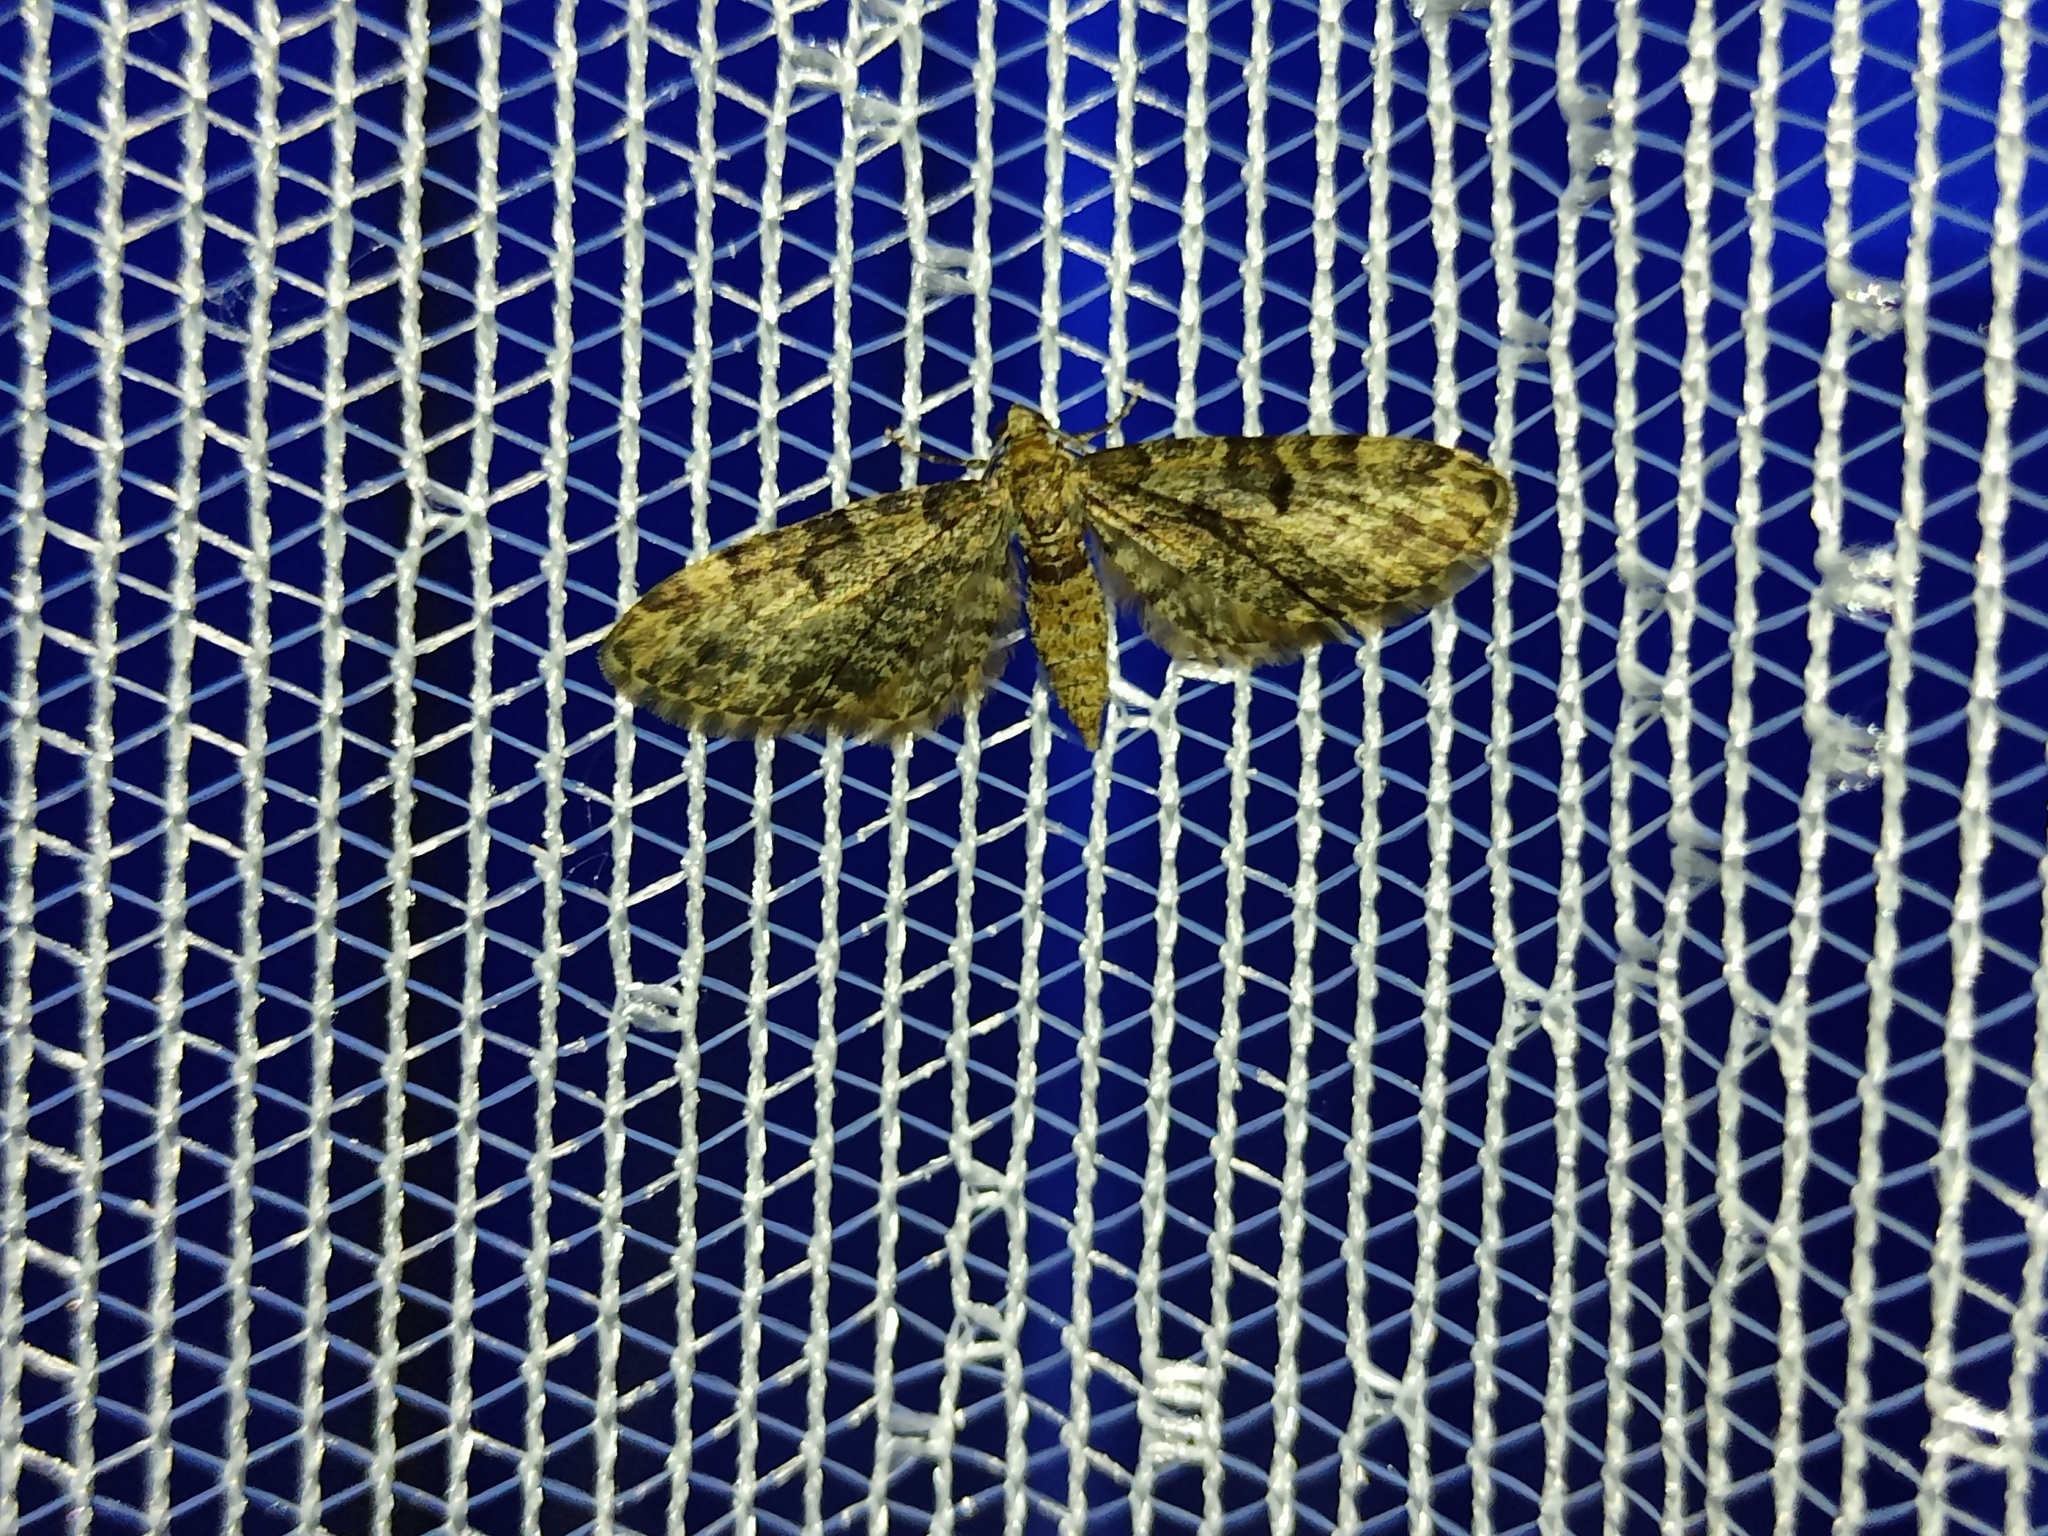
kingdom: Animalia
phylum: Arthropoda
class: Insecta
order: Lepidoptera
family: Geometridae
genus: Eupithecia
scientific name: Eupithecia tantillaria
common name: Dwarf pug
